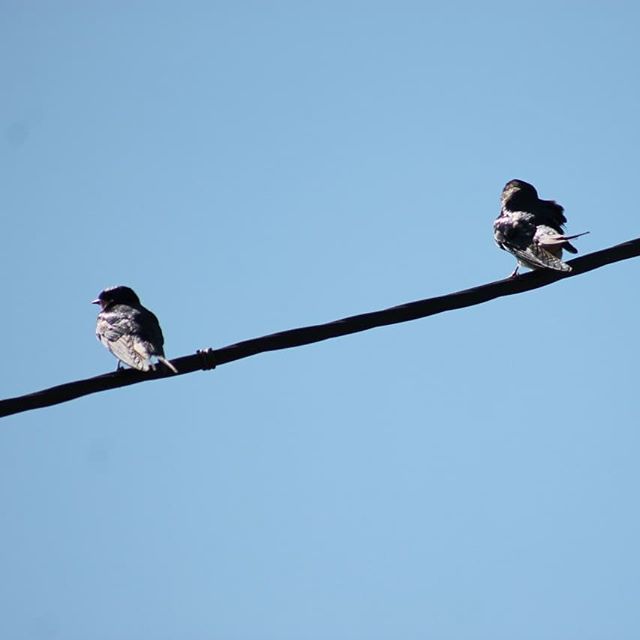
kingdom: Animalia
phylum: Chordata
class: Aves
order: Passeriformes
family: Hirundinidae
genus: Hirundo
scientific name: Hirundo rustica
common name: Barn swallow
